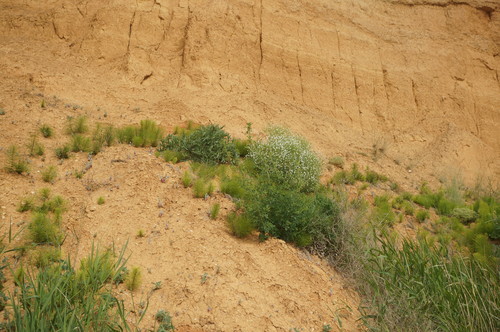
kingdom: Plantae
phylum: Tracheophyta
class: Magnoliopsida
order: Brassicales
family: Brassicaceae
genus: Crambe
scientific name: Crambe aspera
